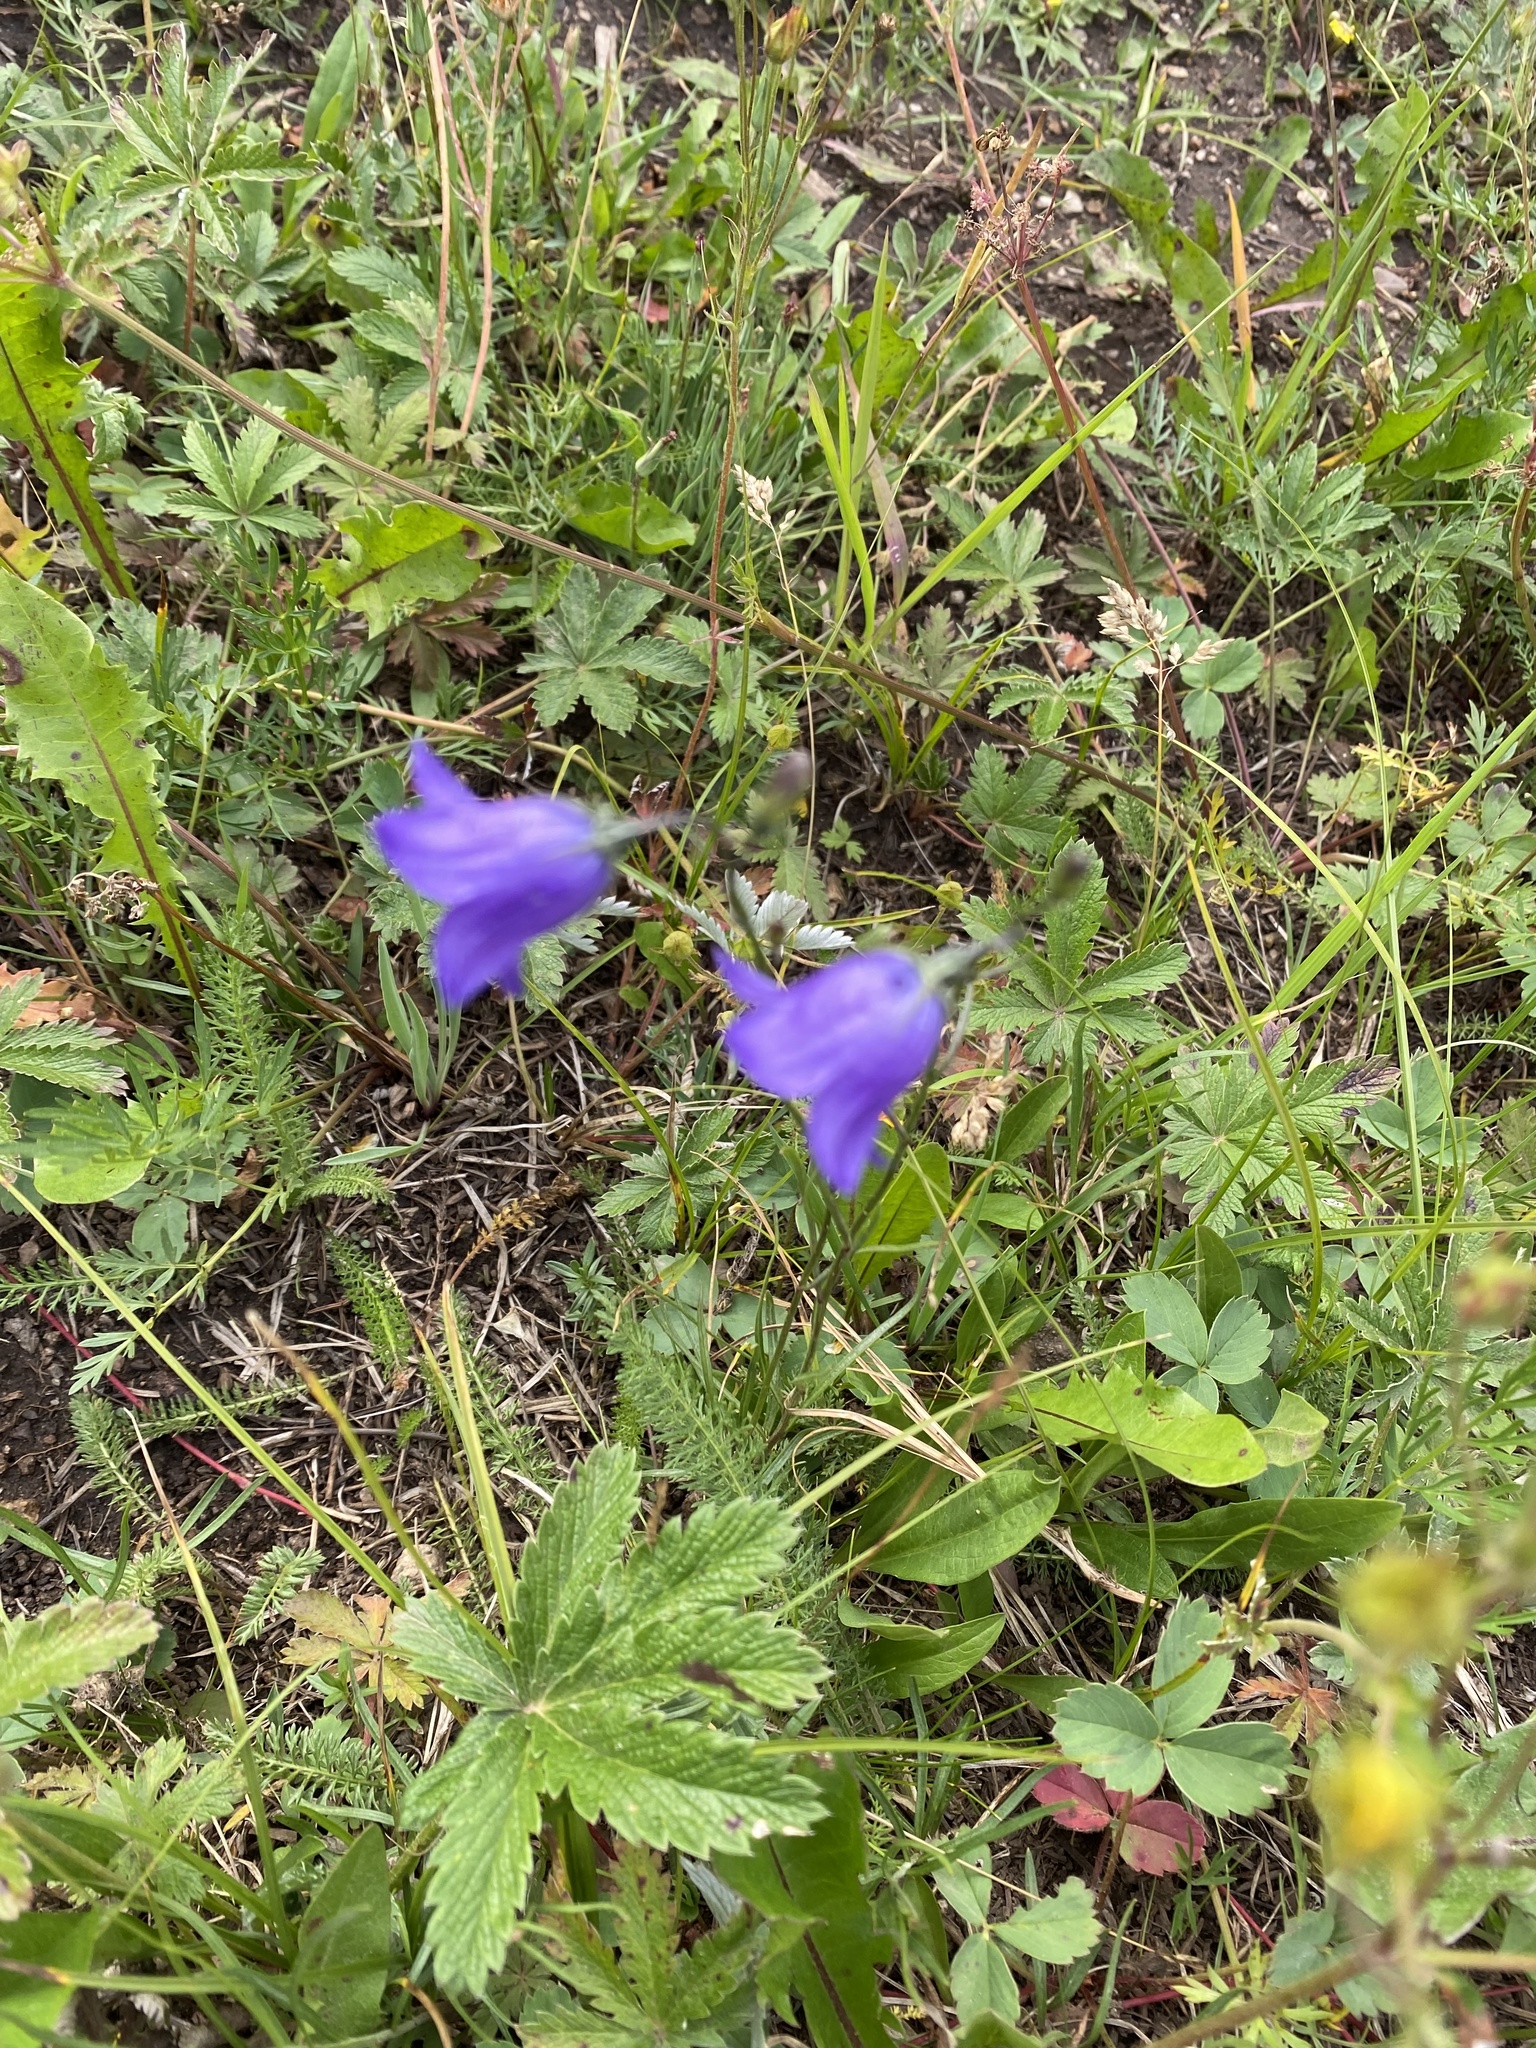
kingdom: Plantae
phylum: Tracheophyta
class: Magnoliopsida
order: Asterales
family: Campanulaceae
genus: Campanula
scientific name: Campanula petiolata
